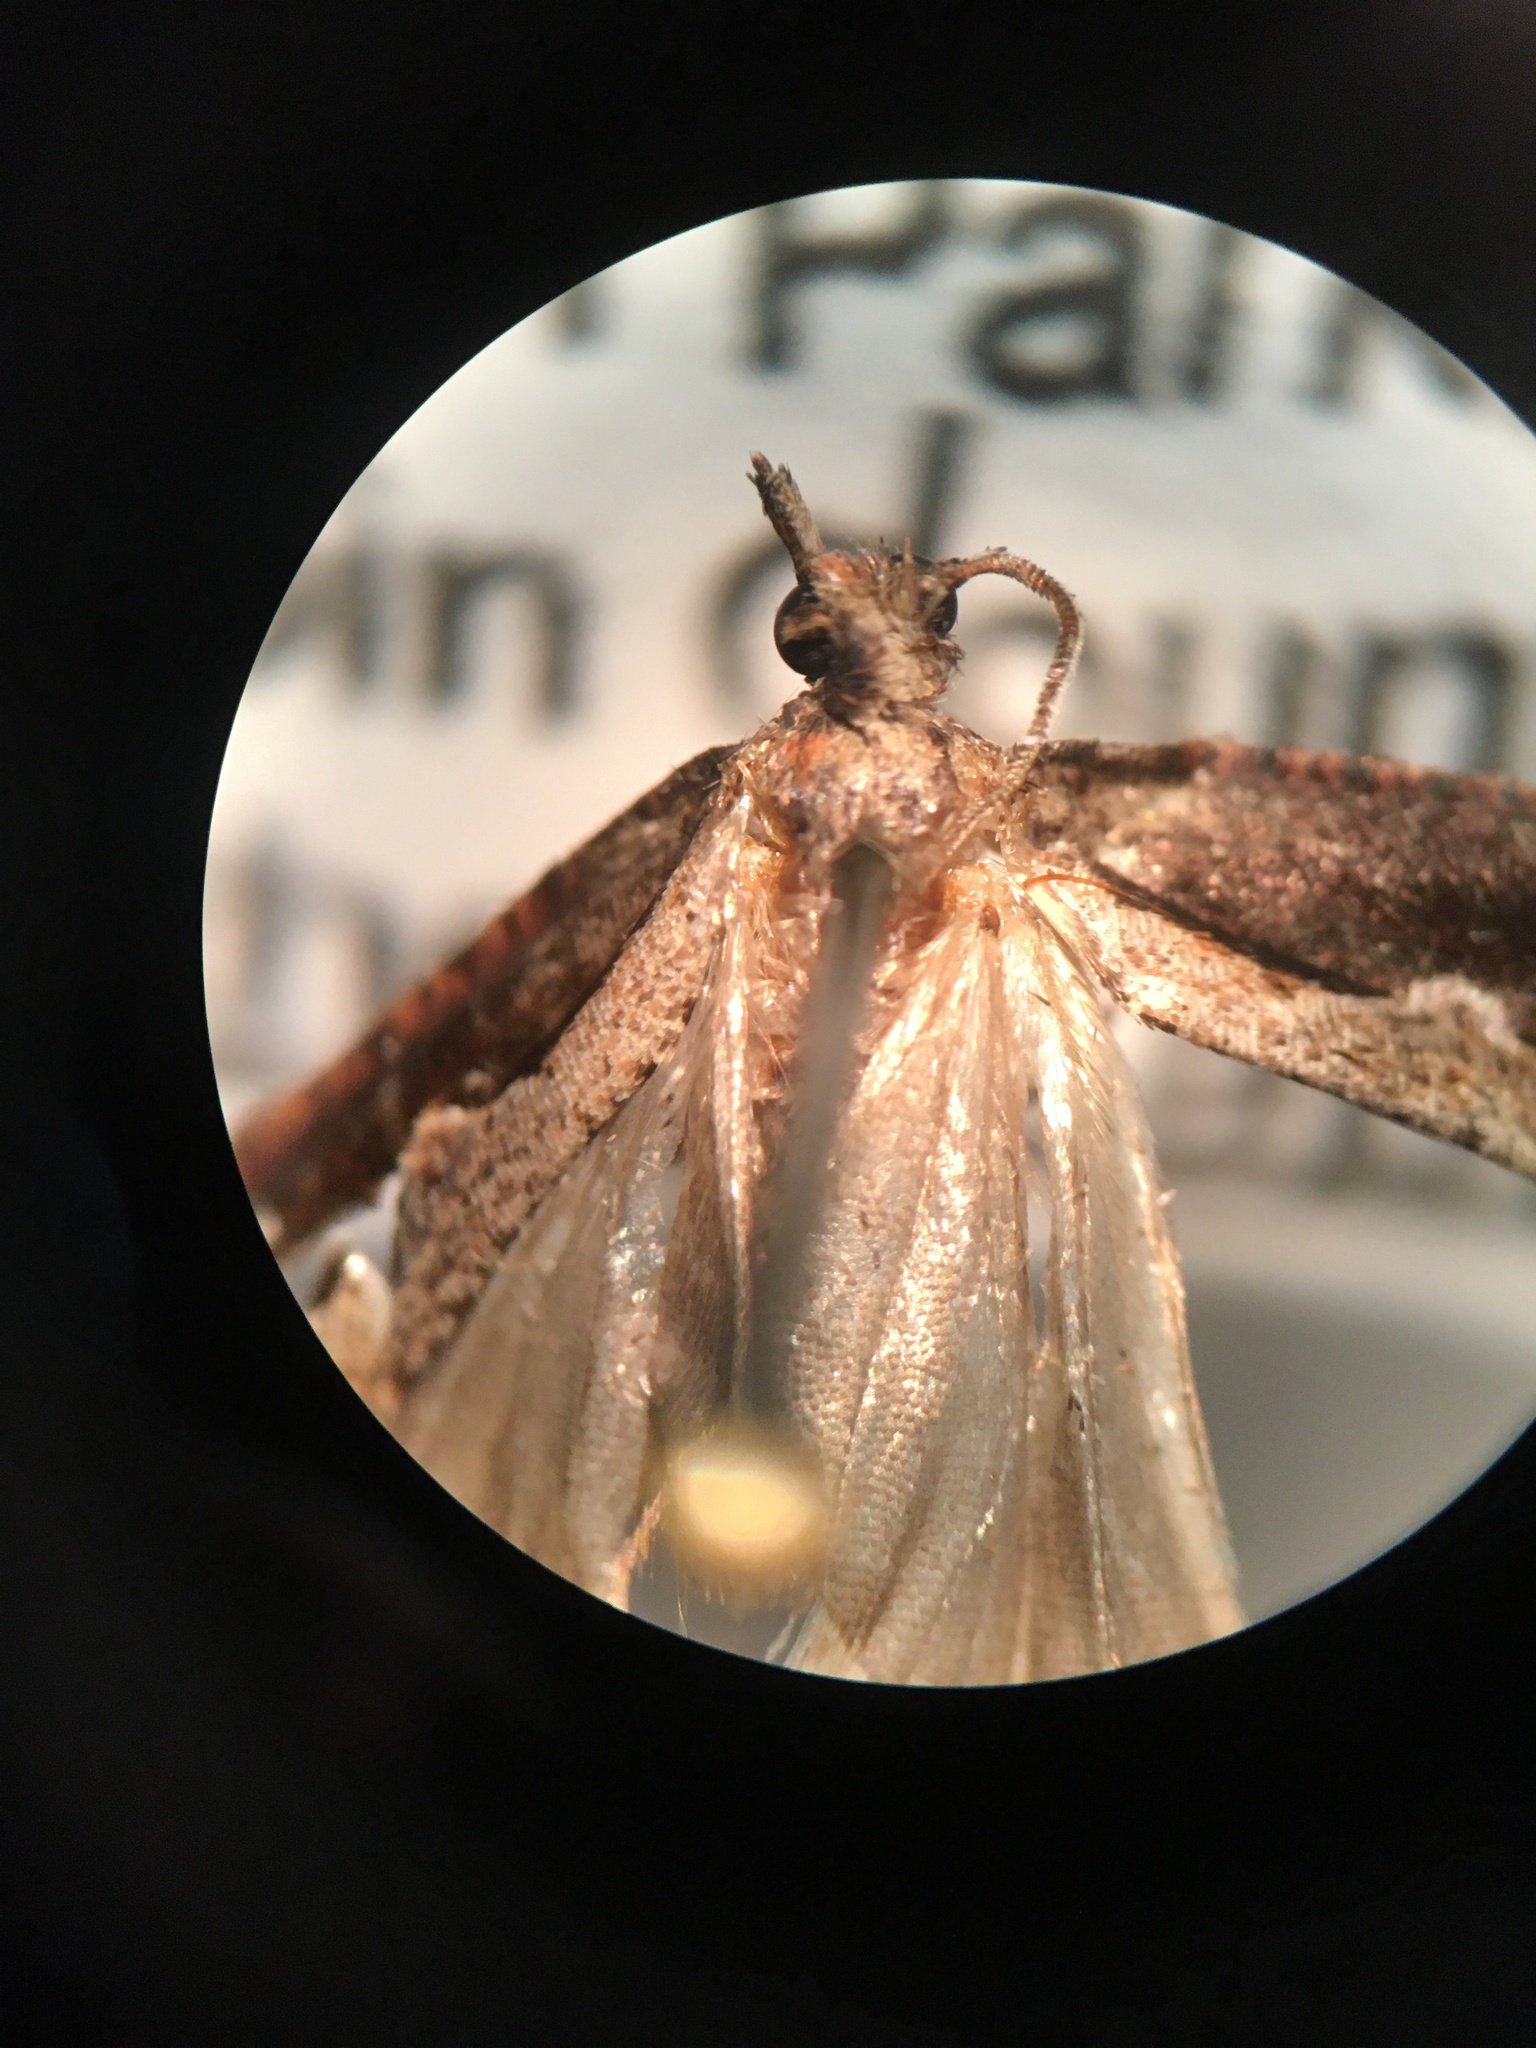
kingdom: Animalia
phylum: Arthropoda
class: Insecta
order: Lepidoptera
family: Tortricidae
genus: Epinotia
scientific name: Epinotia lindana
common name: Diamondback epinotia moth
